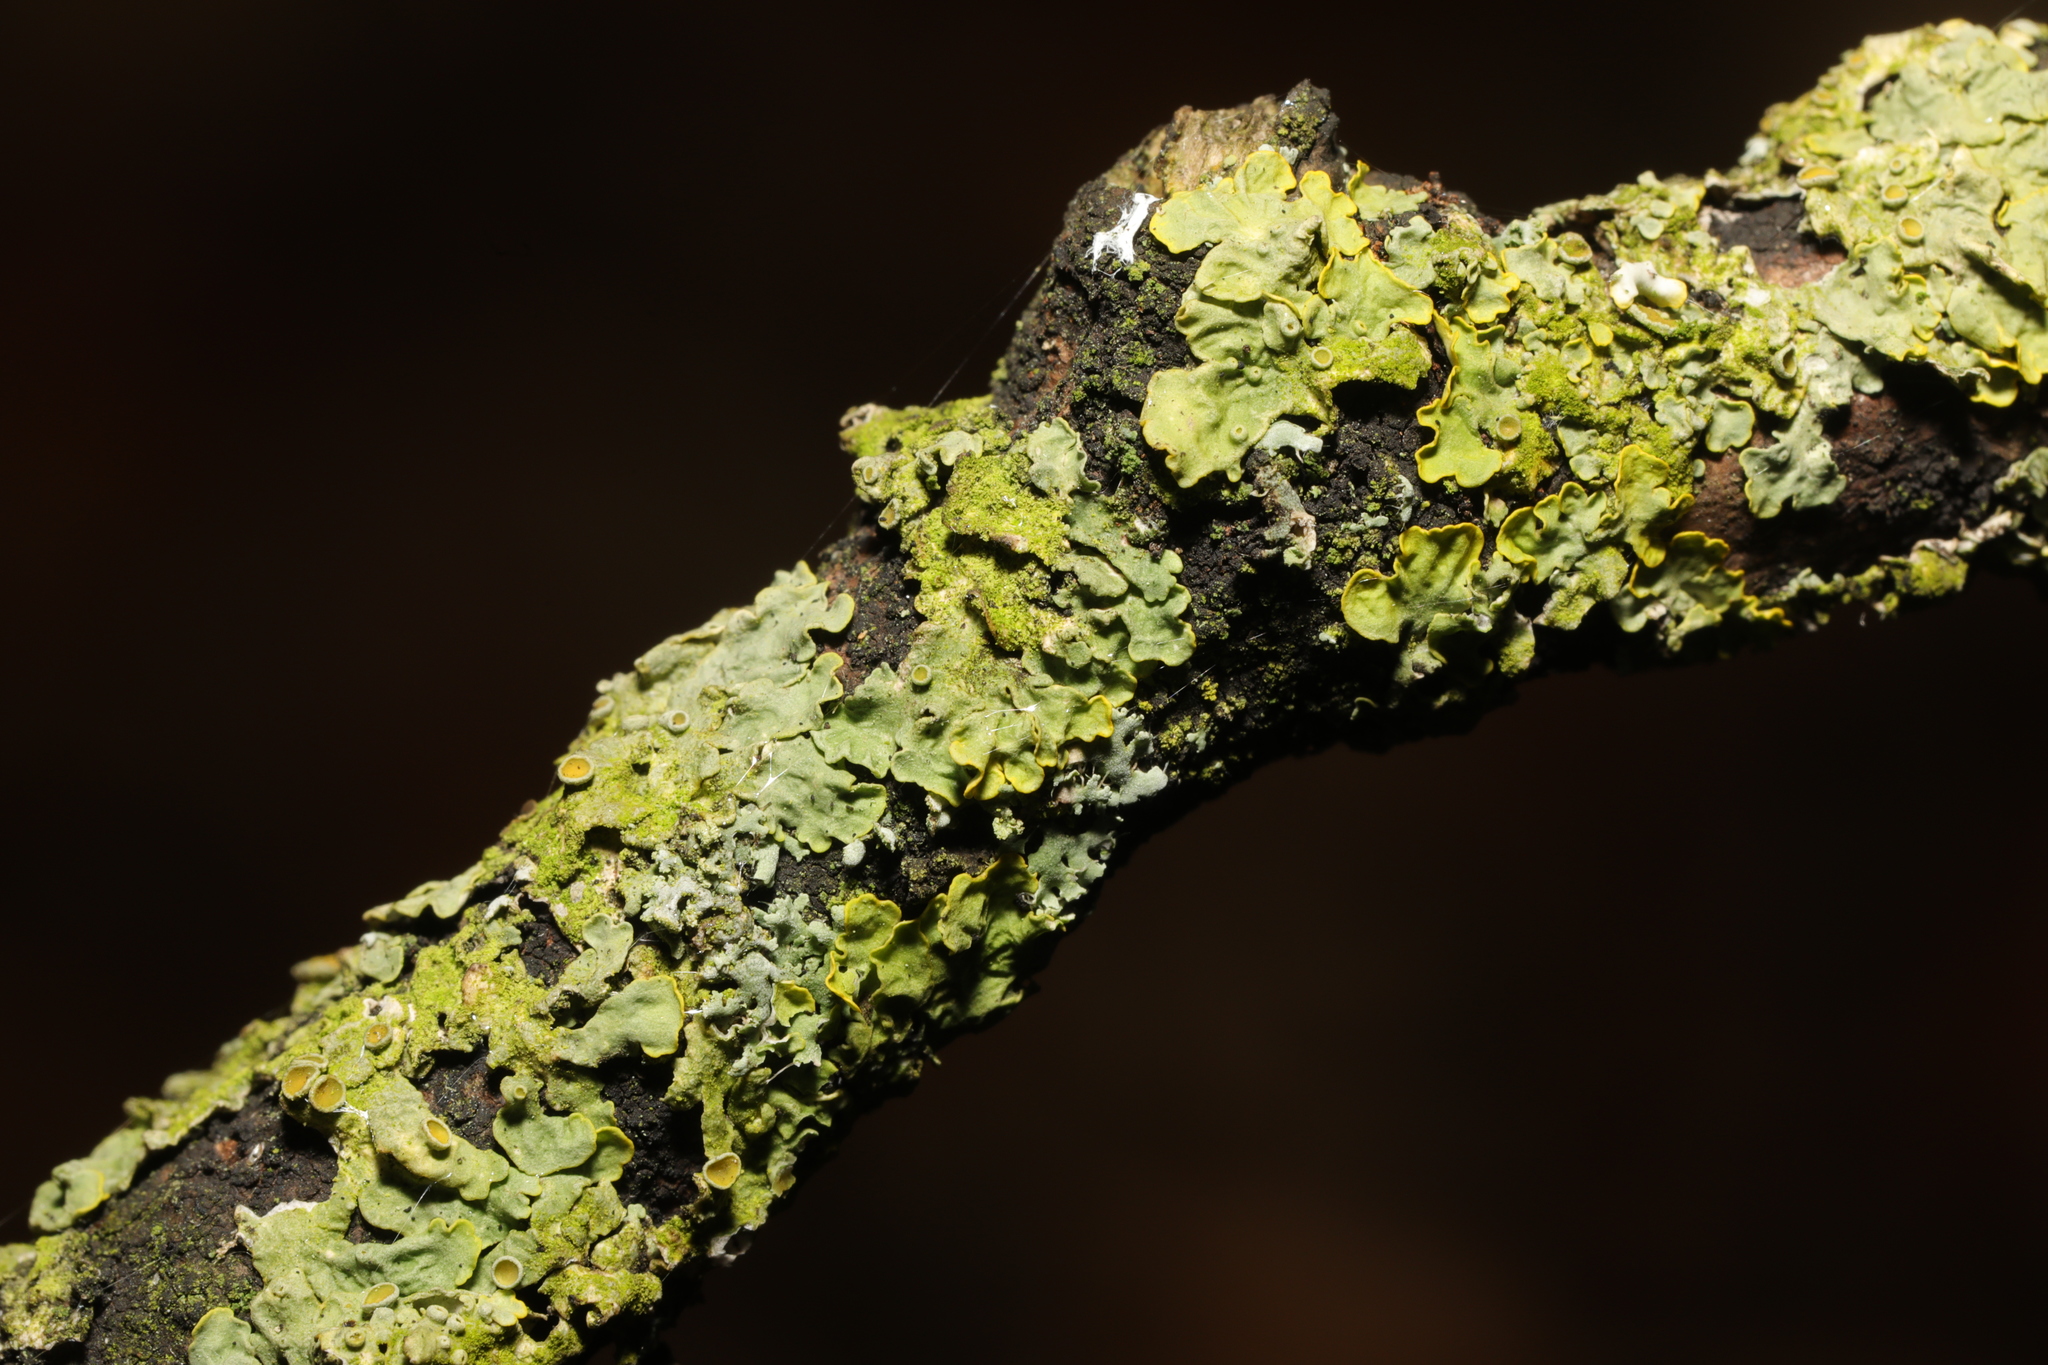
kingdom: Fungi
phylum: Ascomycota
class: Lecanoromycetes
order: Teloschistales
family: Teloschistaceae
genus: Xanthoria
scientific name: Xanthoria parietina
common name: Common orange lichen
